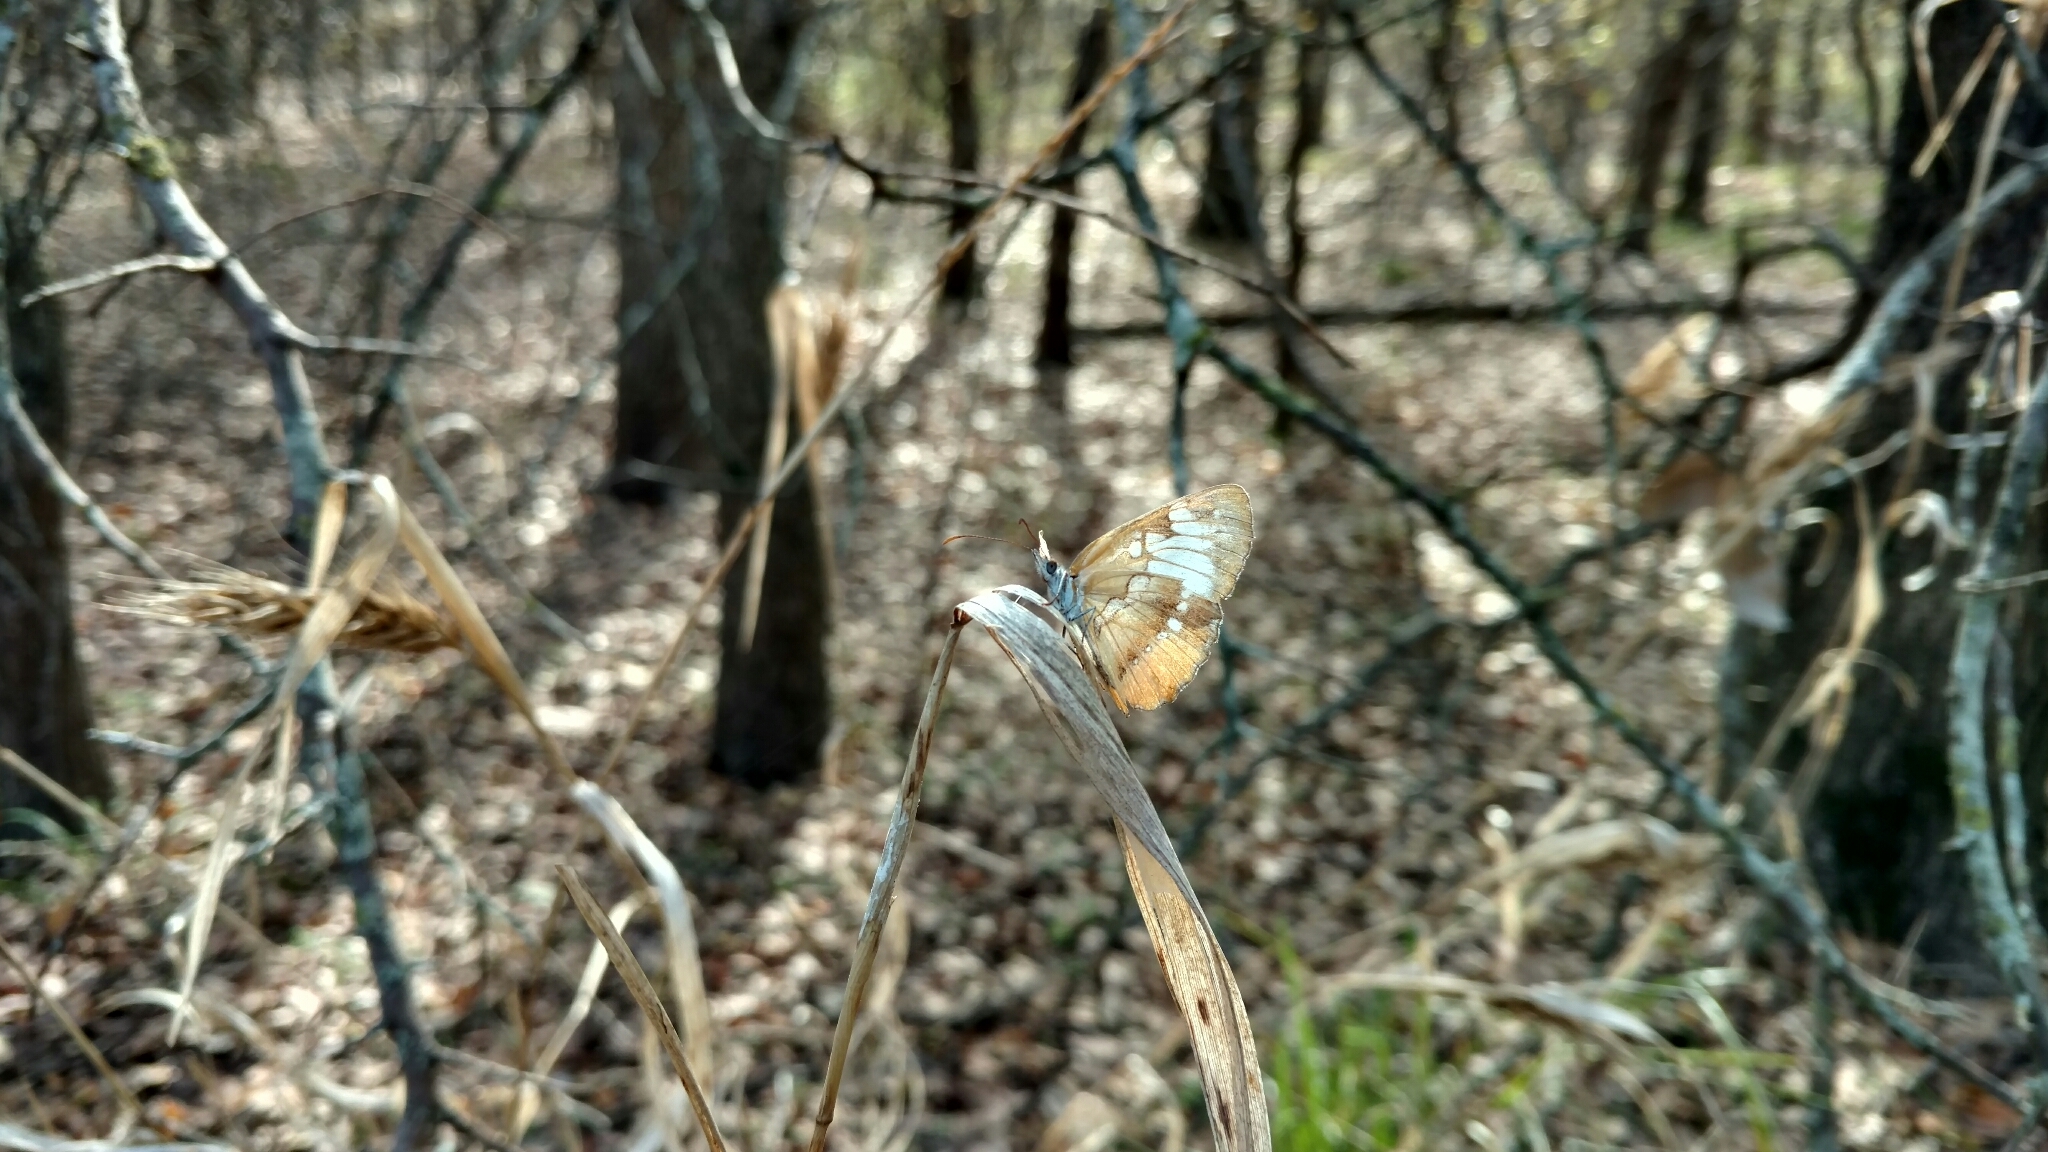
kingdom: Animalia
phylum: Arthropoda
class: Insecta
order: Lepidoptera
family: Nymphalidae
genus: Mestra
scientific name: Mestra amymone
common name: Common mestra
